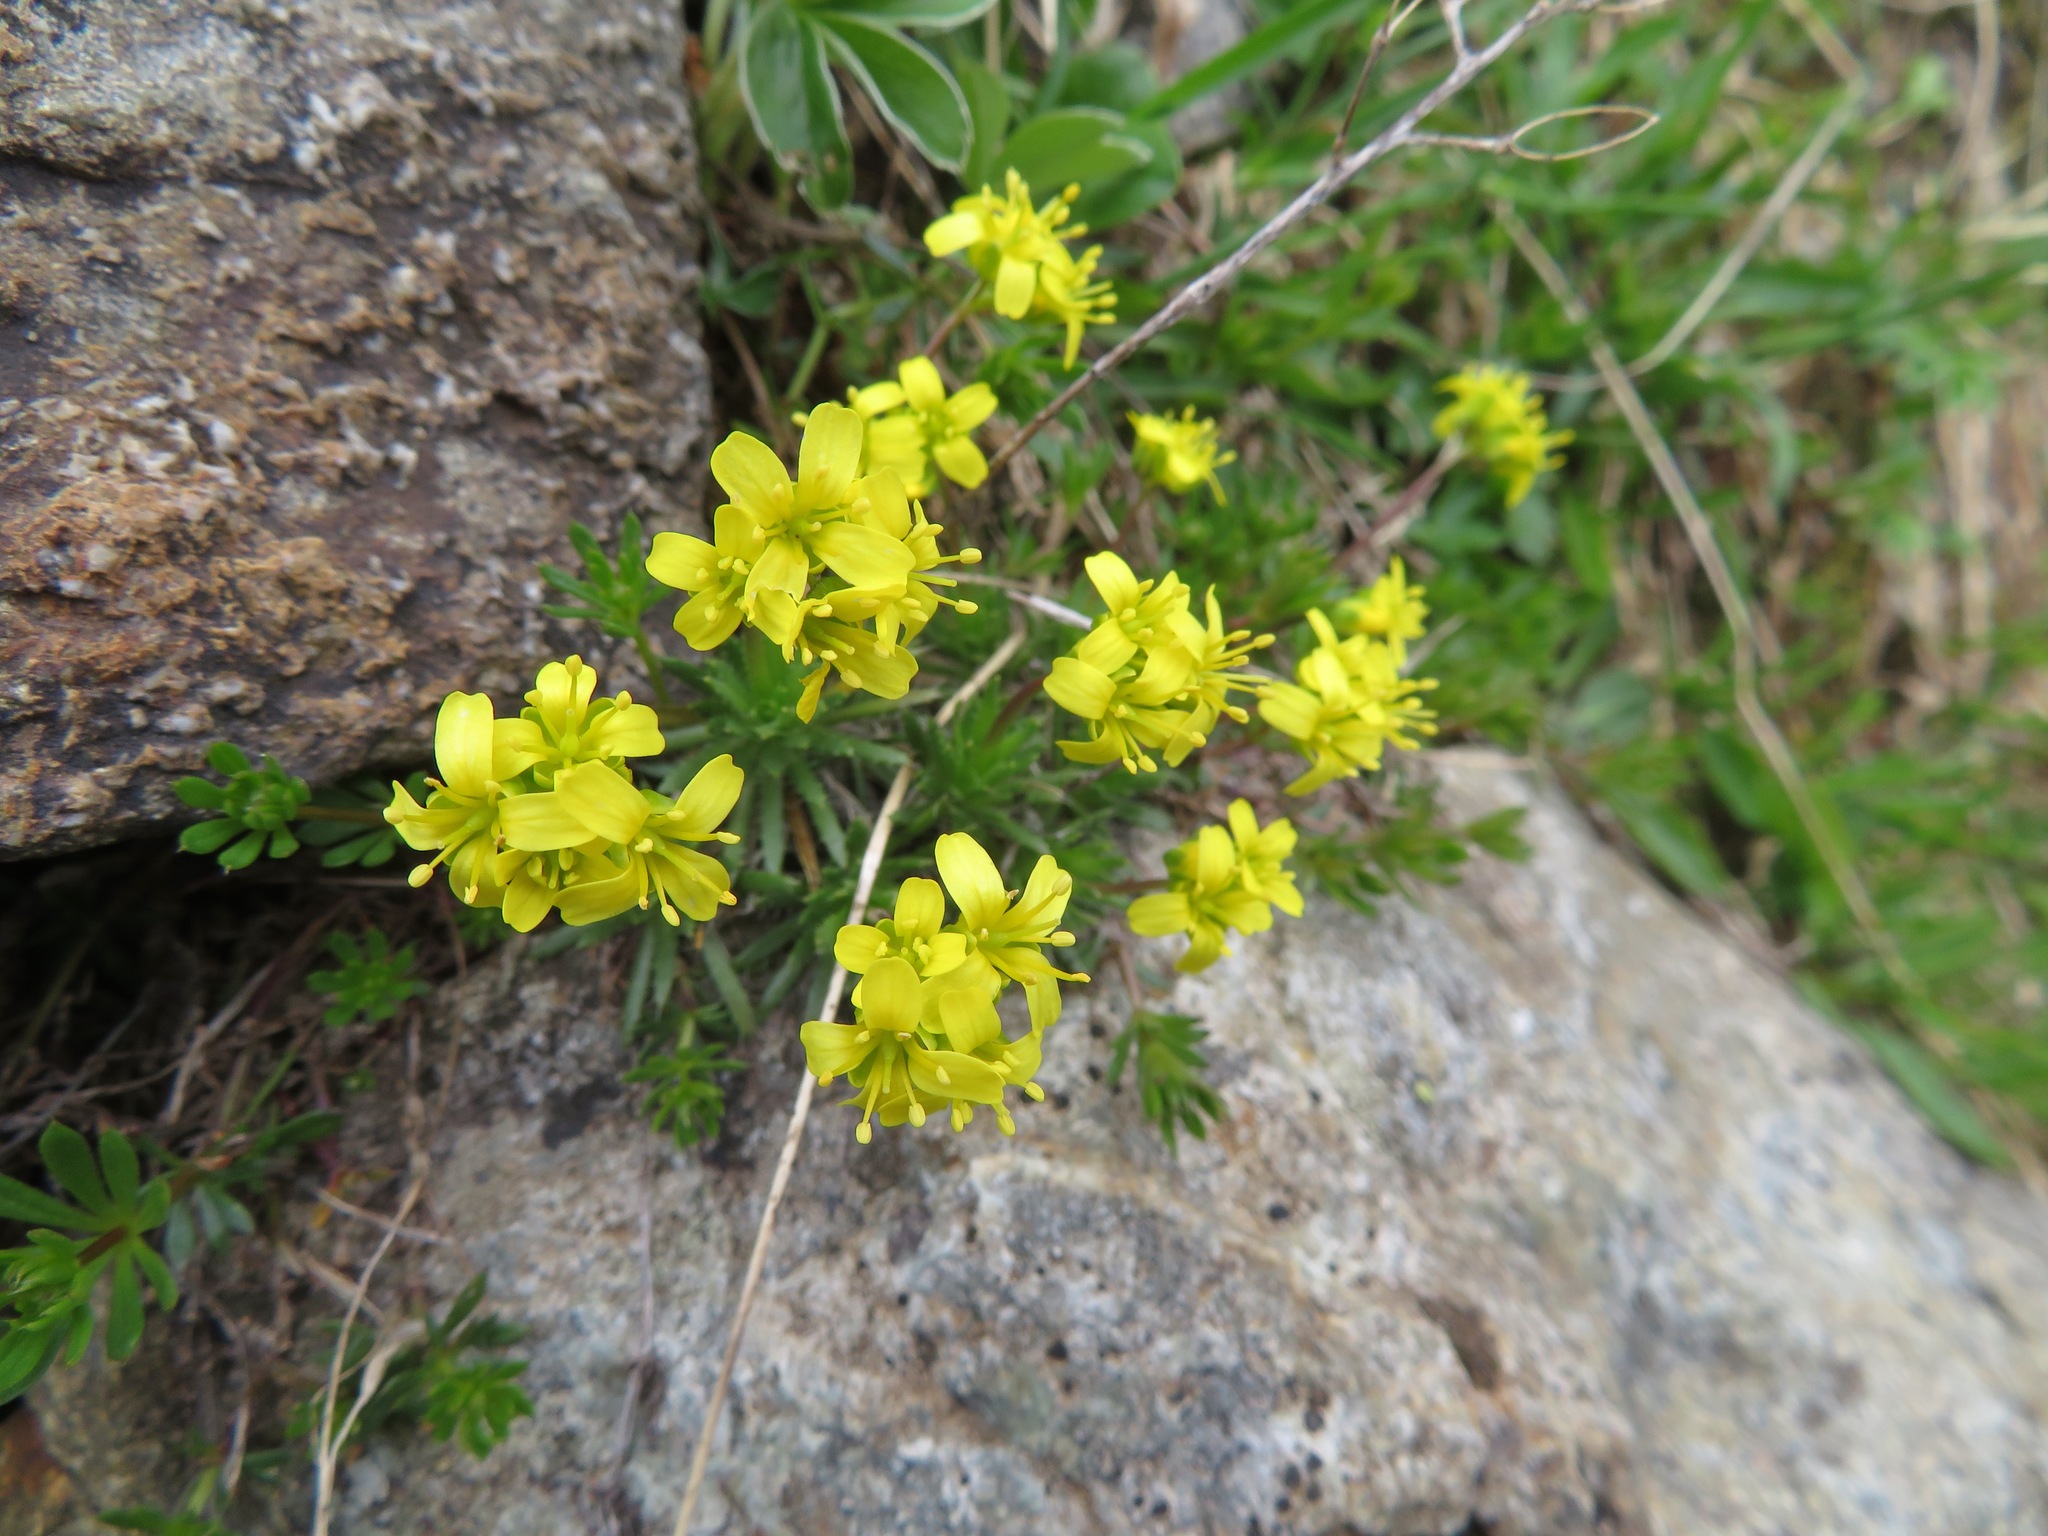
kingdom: Plantae
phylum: Tracheophyta
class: Magnoliopsida
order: Brassicales
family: Brassicaceae
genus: Draba
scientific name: Draba aizoides
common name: Yellow whitlowgrass
